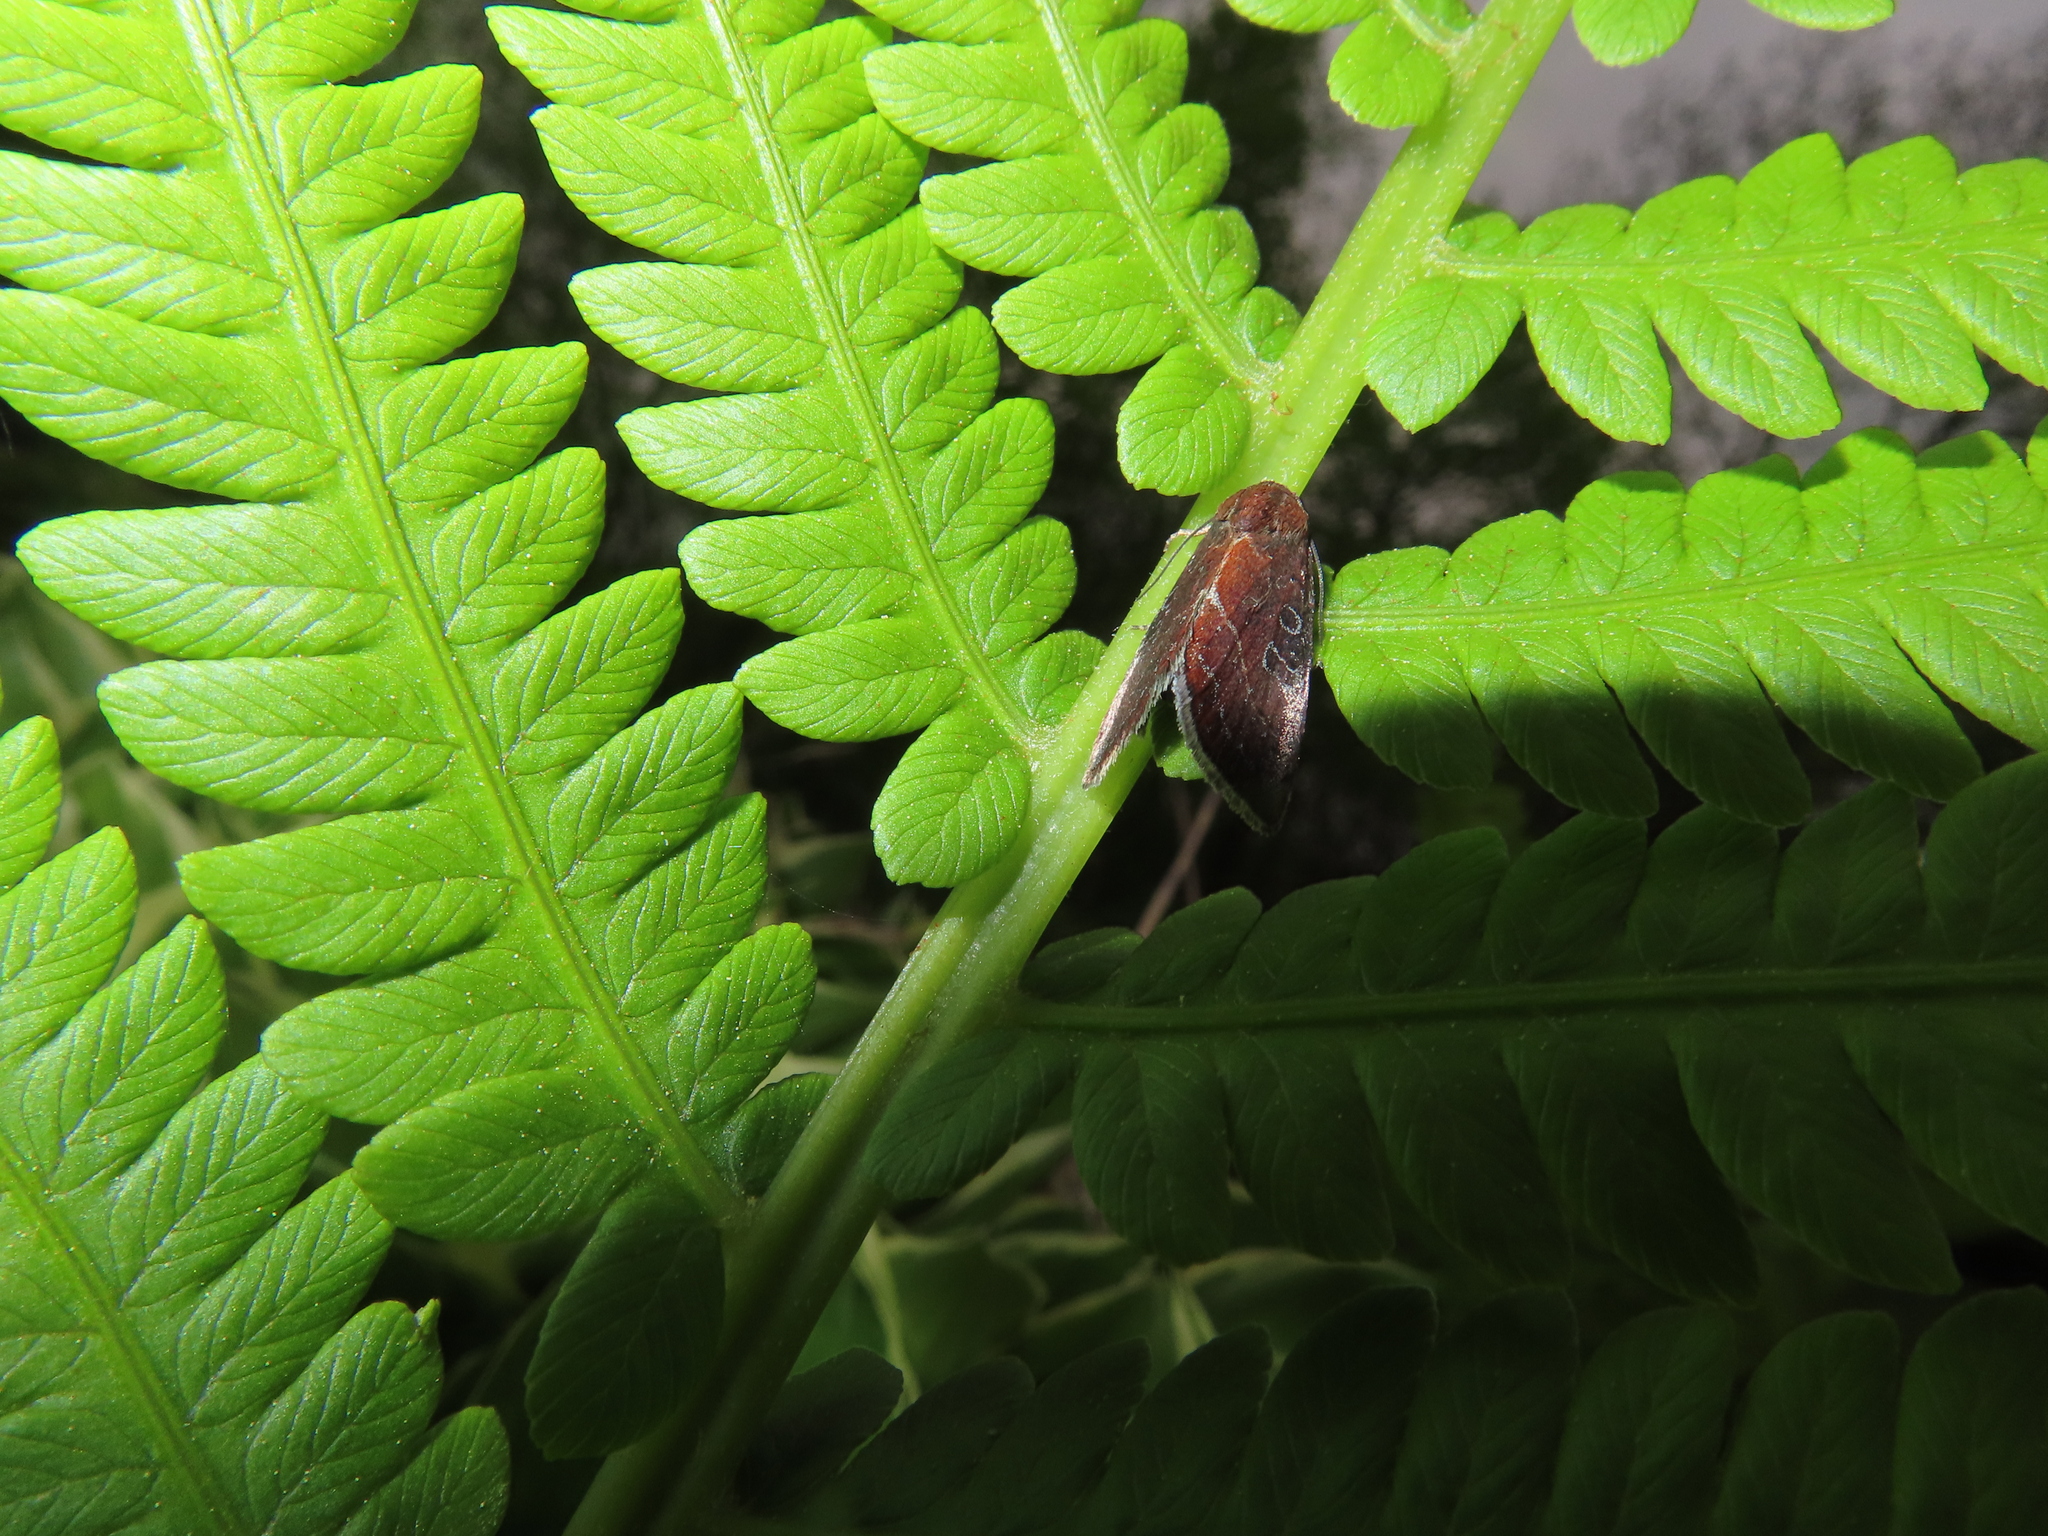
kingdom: Animalia
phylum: Arthropoda
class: Insecta
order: Lepidoptera
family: Noctuidae
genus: Galgula
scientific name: Galgula partita
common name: Wedgeling
